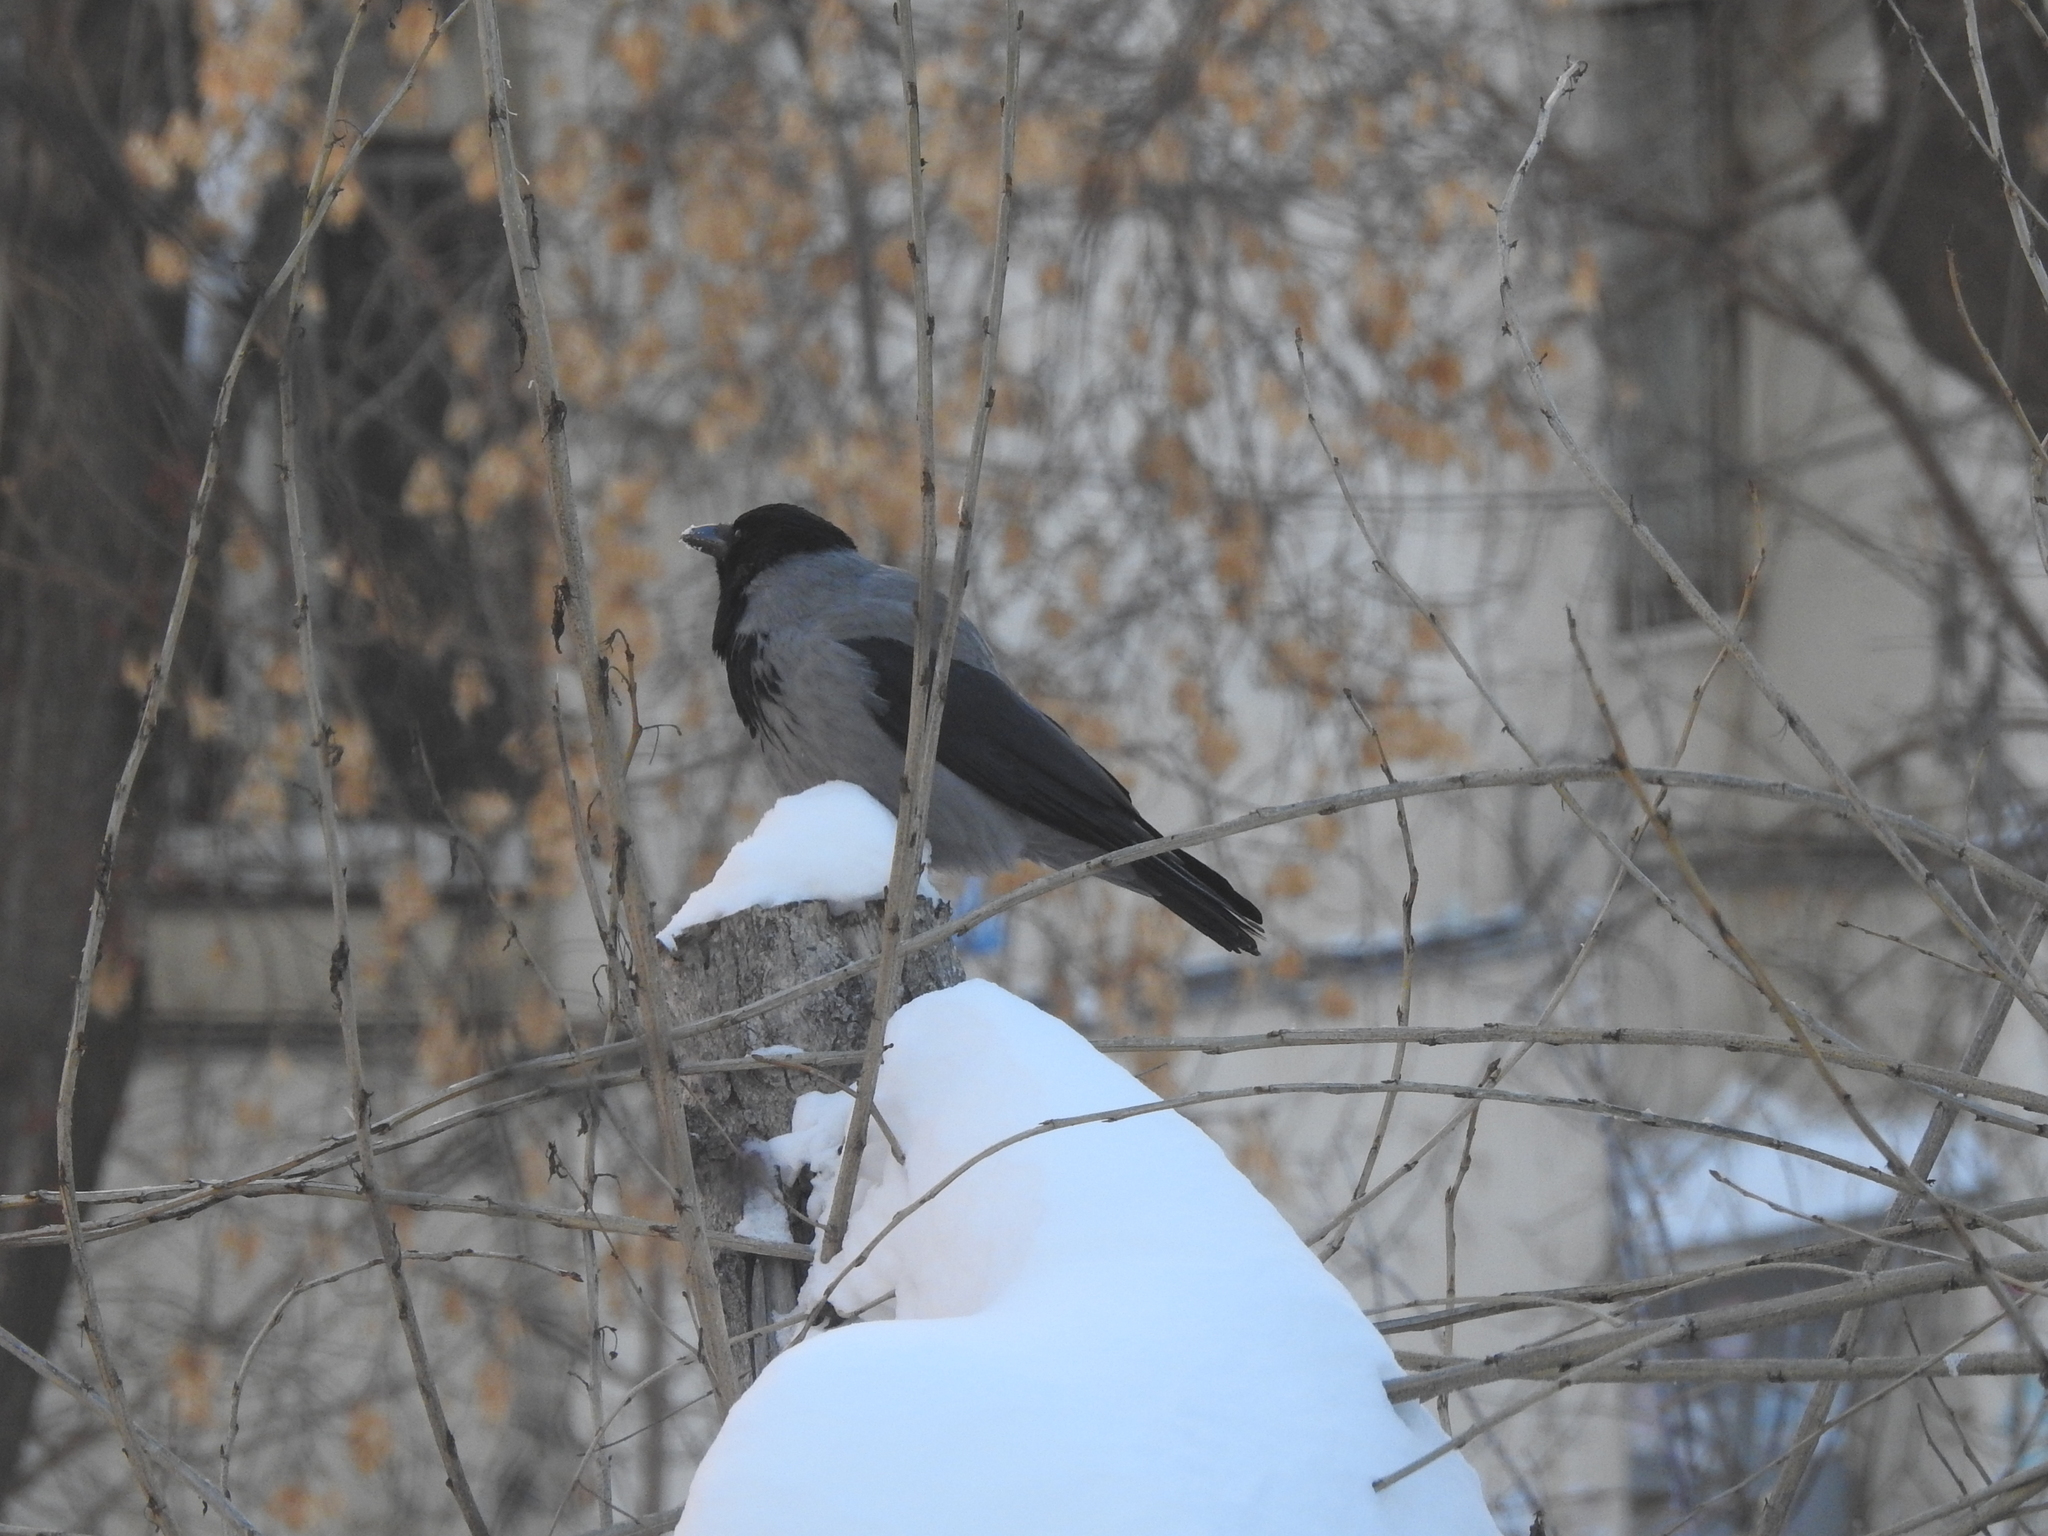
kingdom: Animalia
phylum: Chordata
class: Aves
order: Passeriformes
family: Corvidae
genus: Corvus
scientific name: Corvus cornix
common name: Hooded crow
